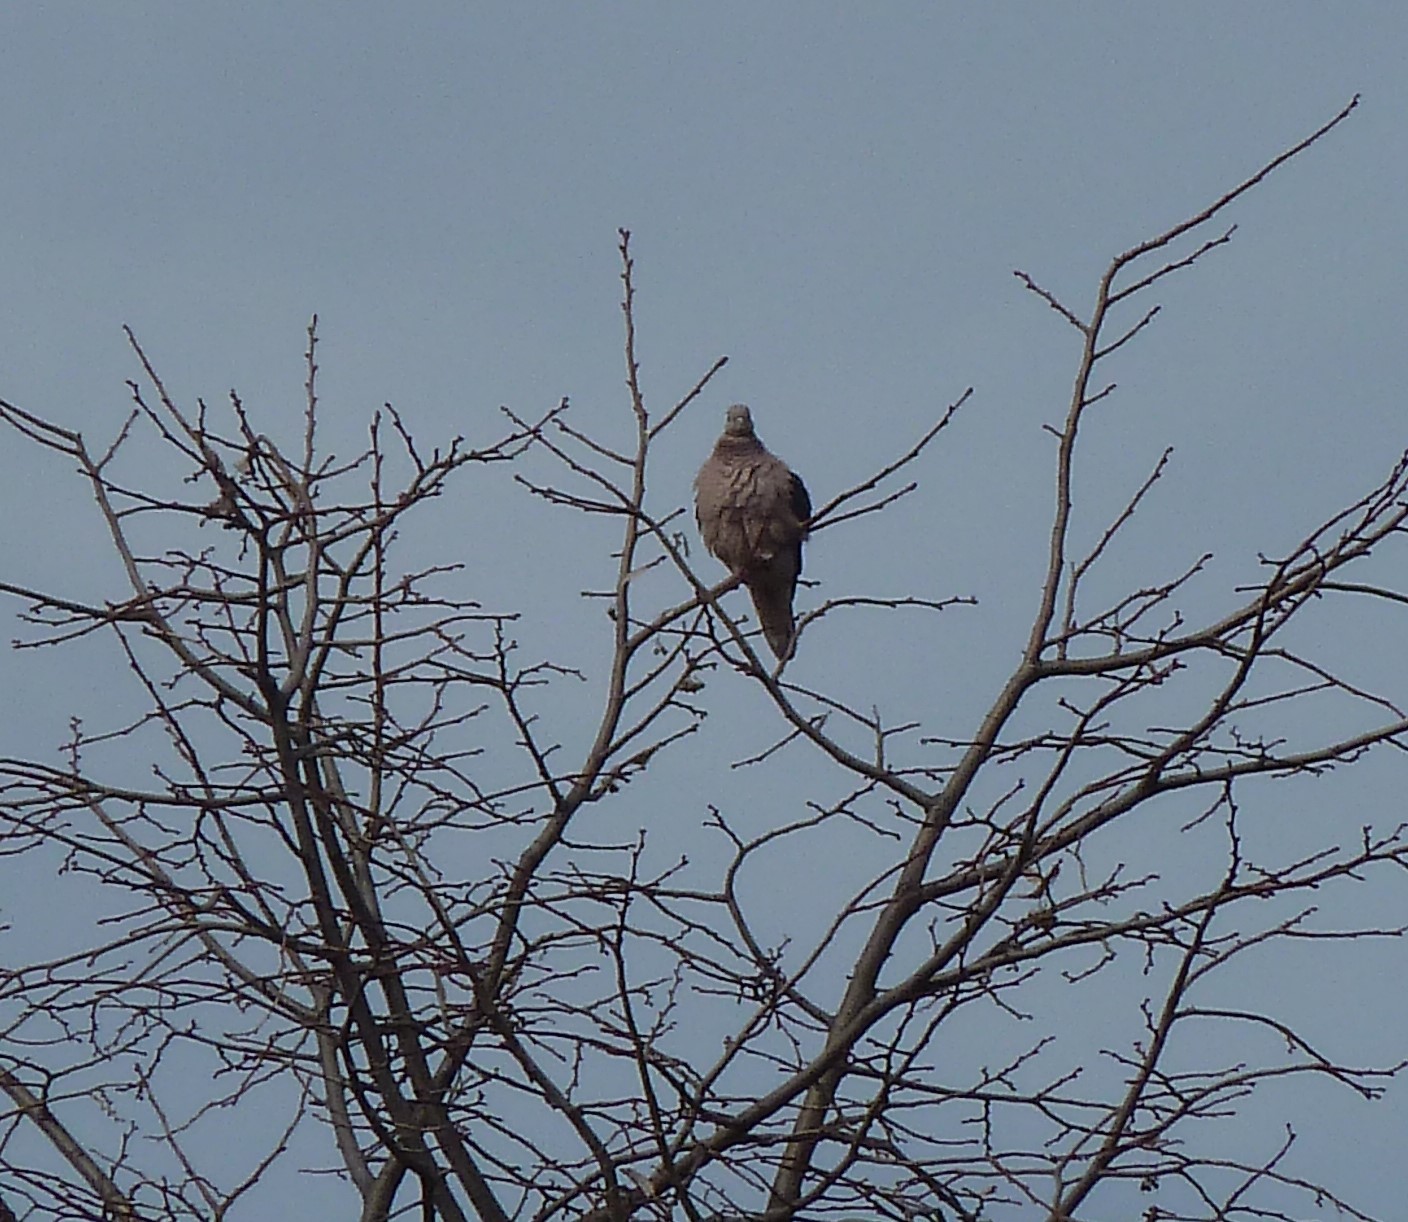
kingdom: Animalia
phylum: Chordata
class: Aves
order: Columbiformes
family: Columbidae
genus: Zenaida
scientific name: Zenaida auriculata
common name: Eared dove
